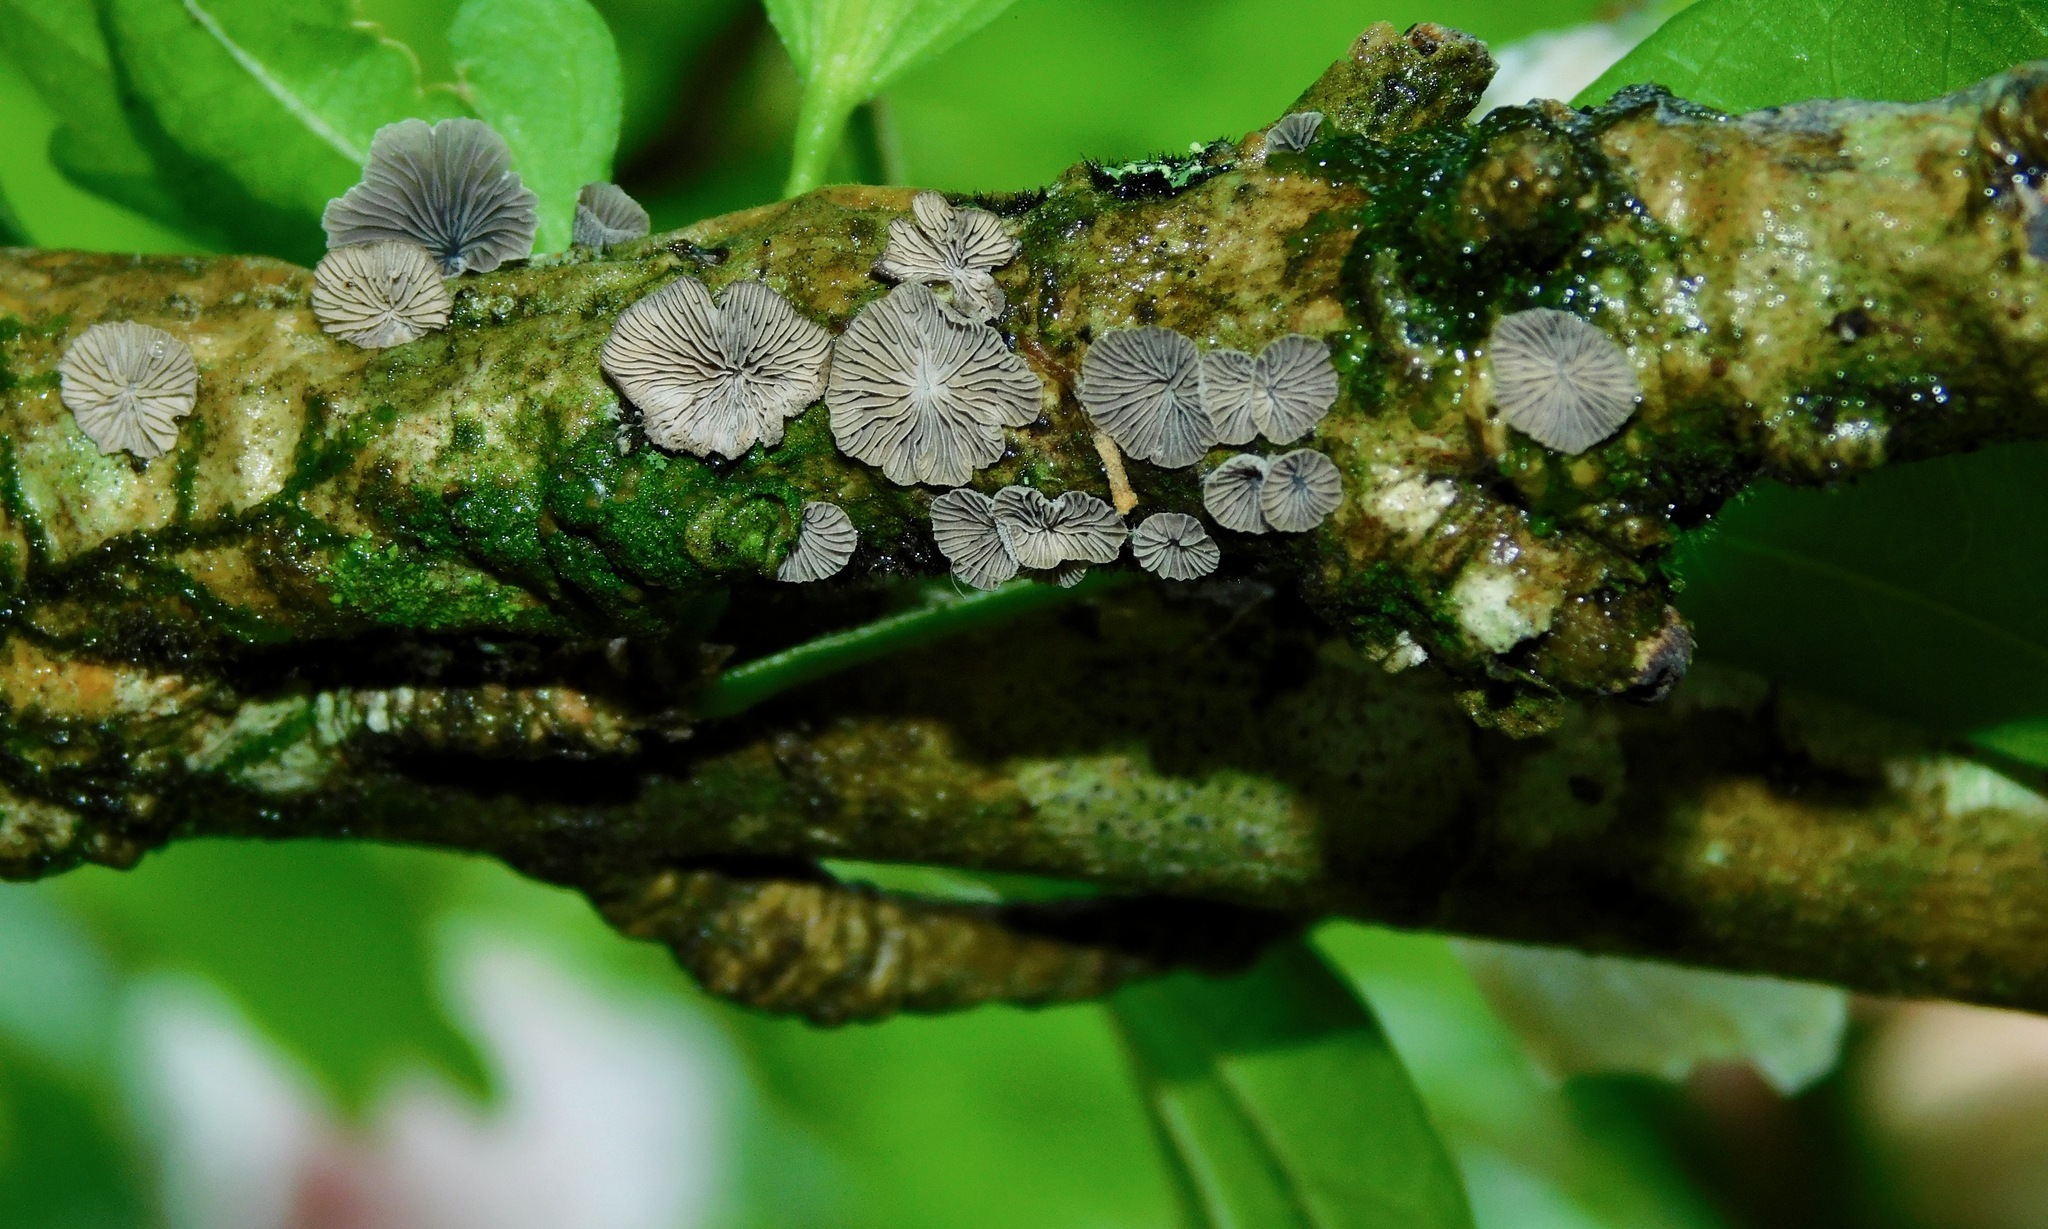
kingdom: Fungi
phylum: Basidiomycota
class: Agaricomycetes
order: Agaricales
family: Pleurotaceae
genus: Resupinatus
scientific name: Resupinatus applicatus
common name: Smoked oysterling
